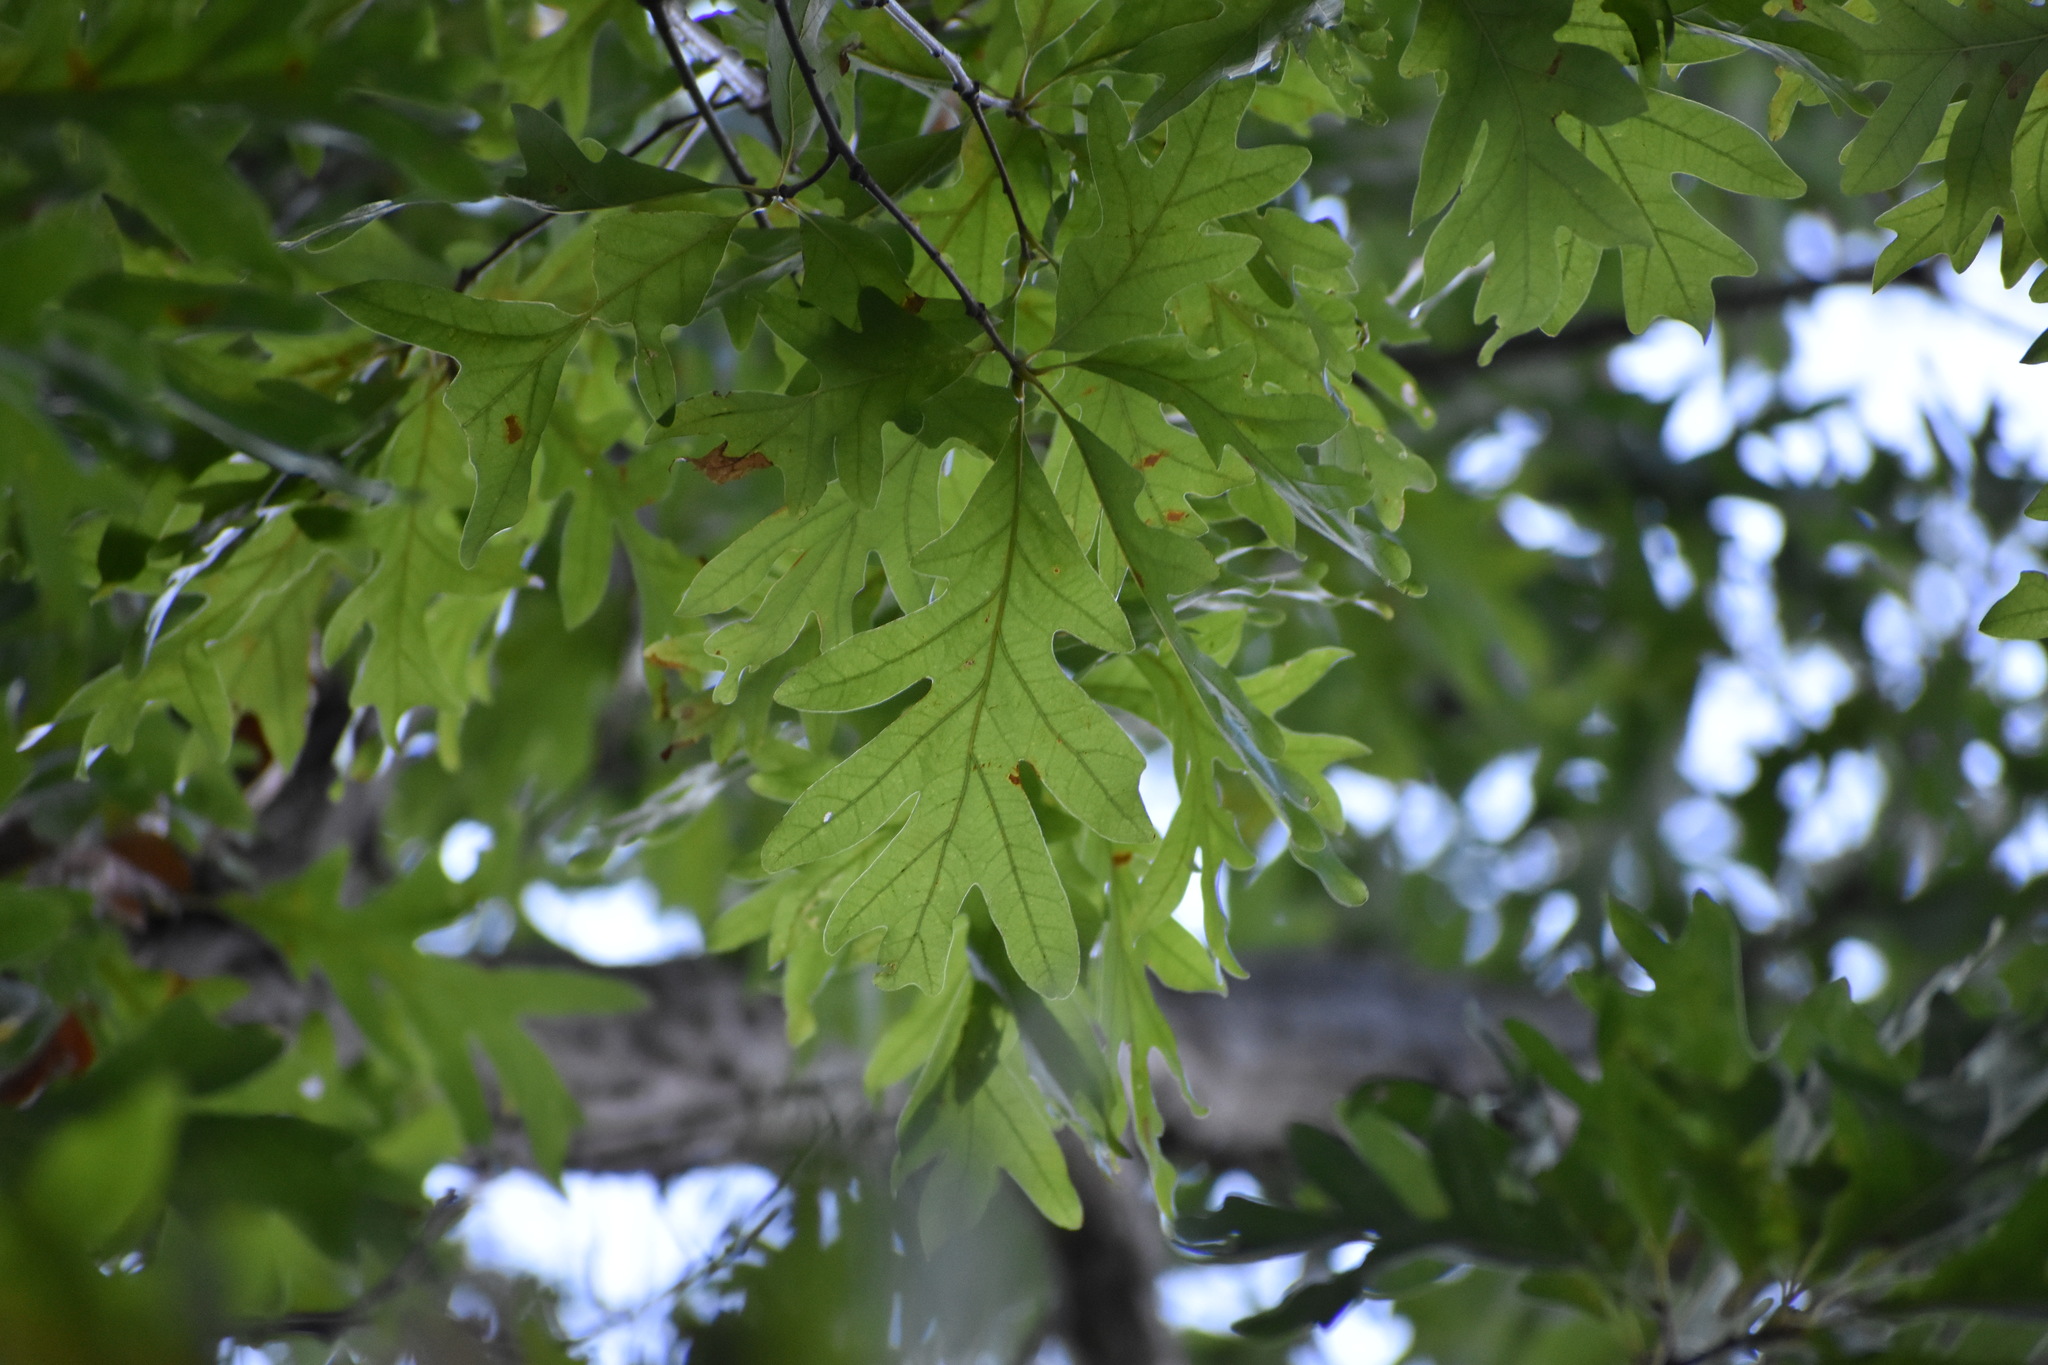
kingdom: Plantae
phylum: Tracheophyta
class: Magnoliopsida
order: Fagales
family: Fagaceae
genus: Quercus
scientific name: Quercus alba
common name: White oak
